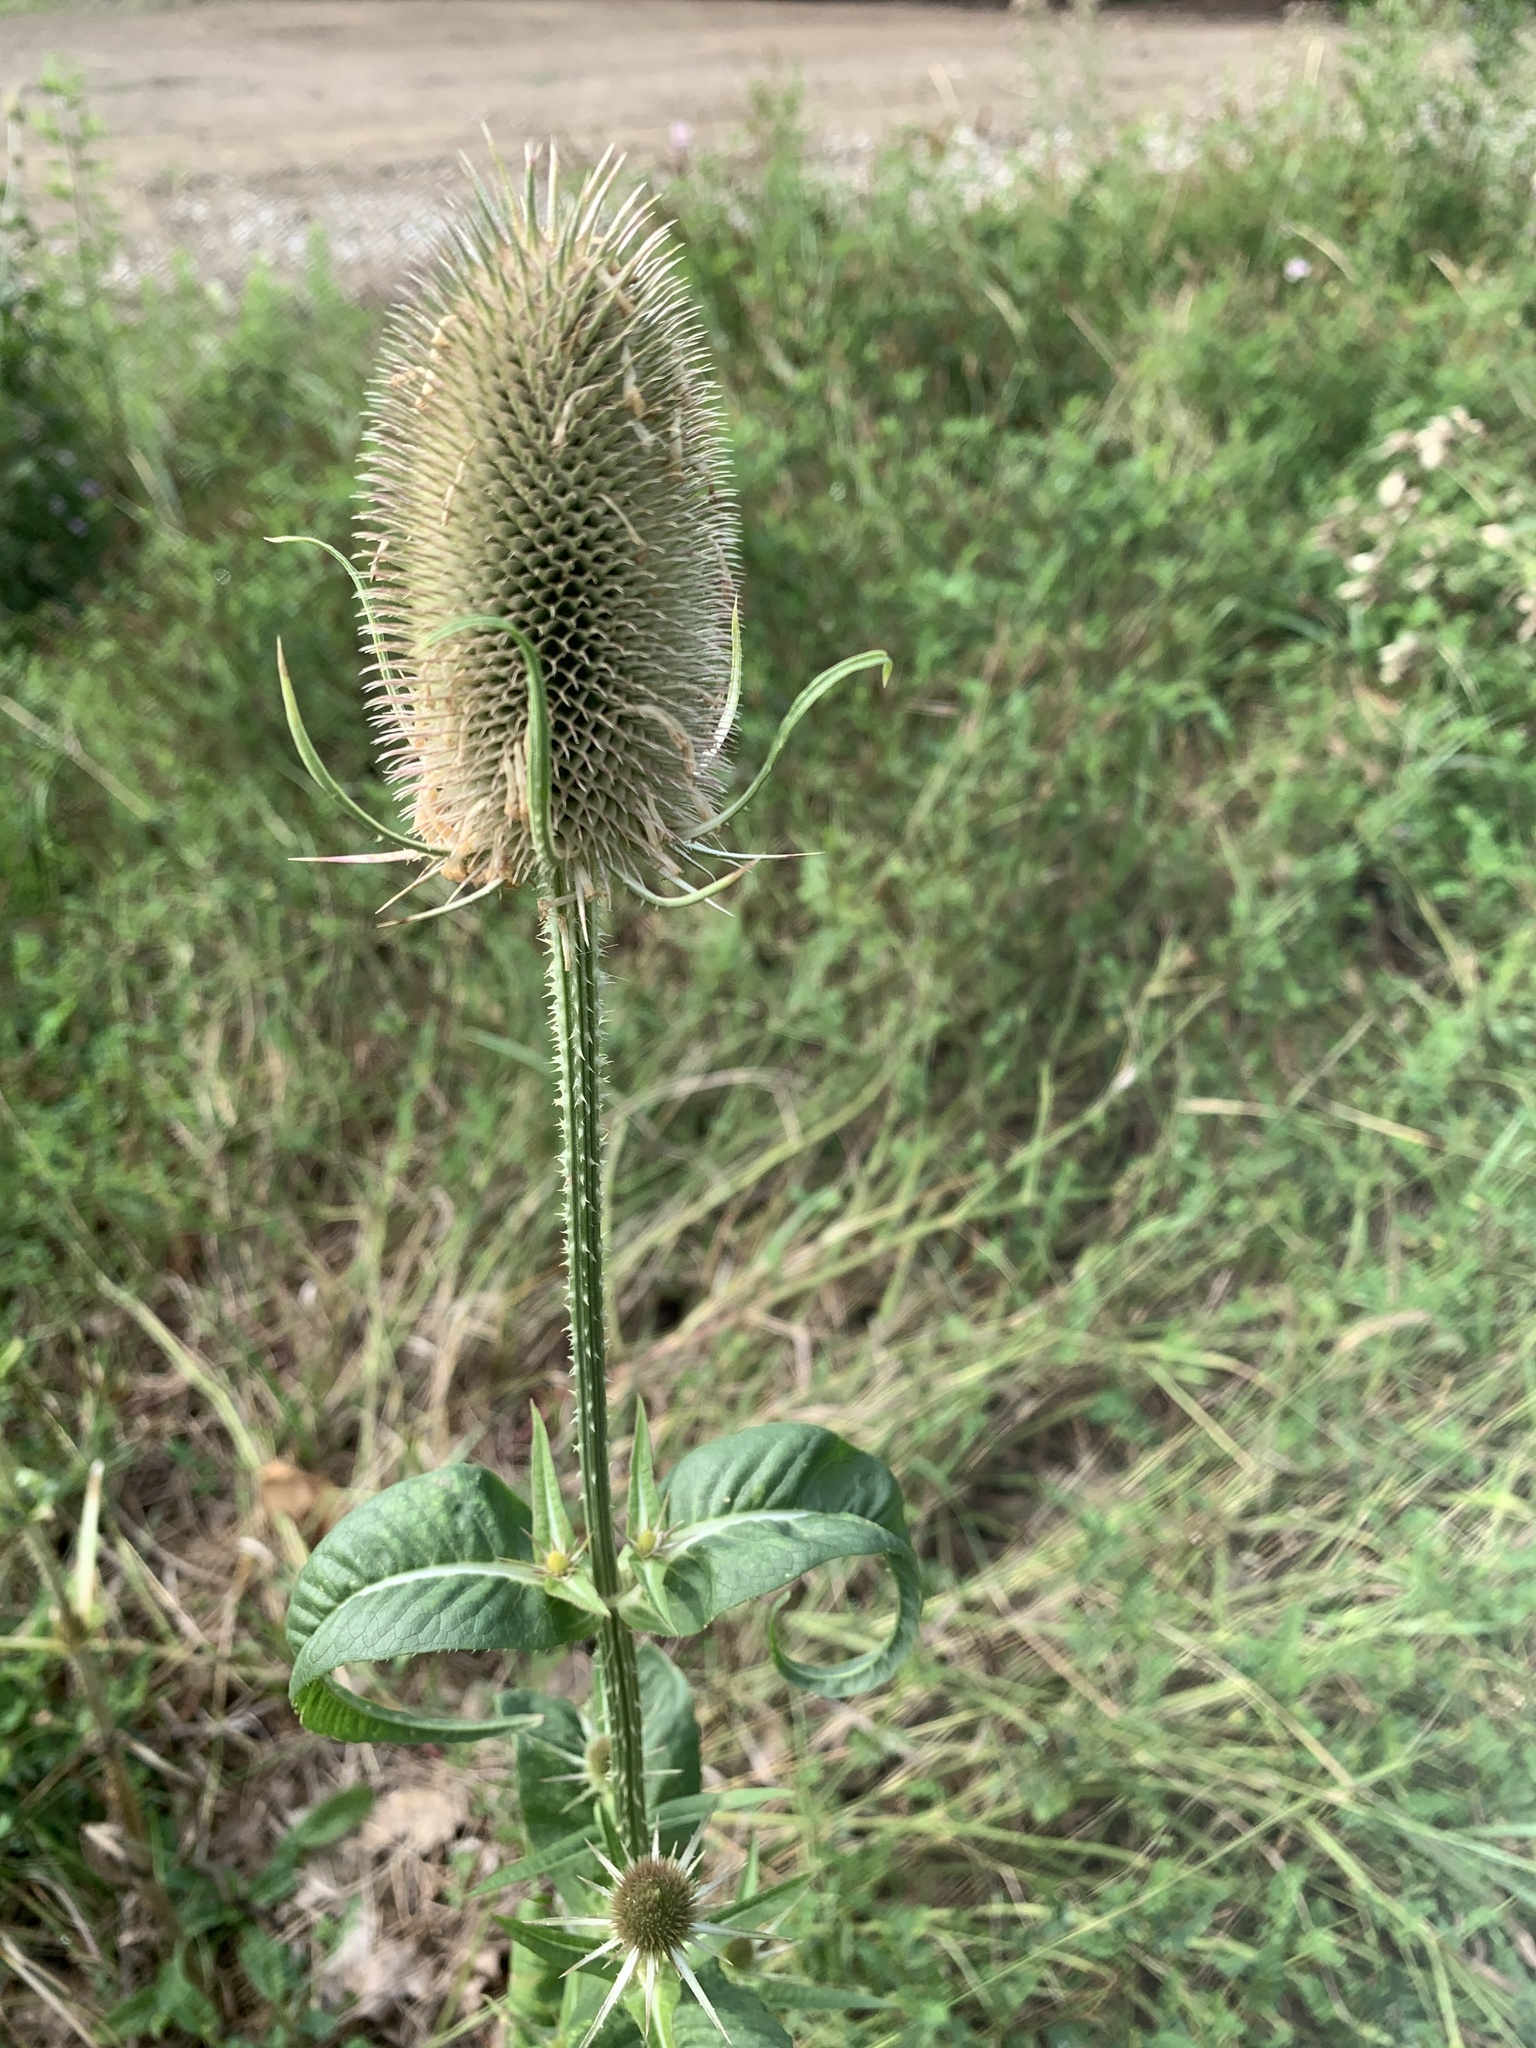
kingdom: Plantae
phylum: Tracheophyta
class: Magnoliopsida
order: Dipsacales
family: Caprifoliaceae
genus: Dipsacus
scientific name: Dipsacus fullonum
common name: Teasel
